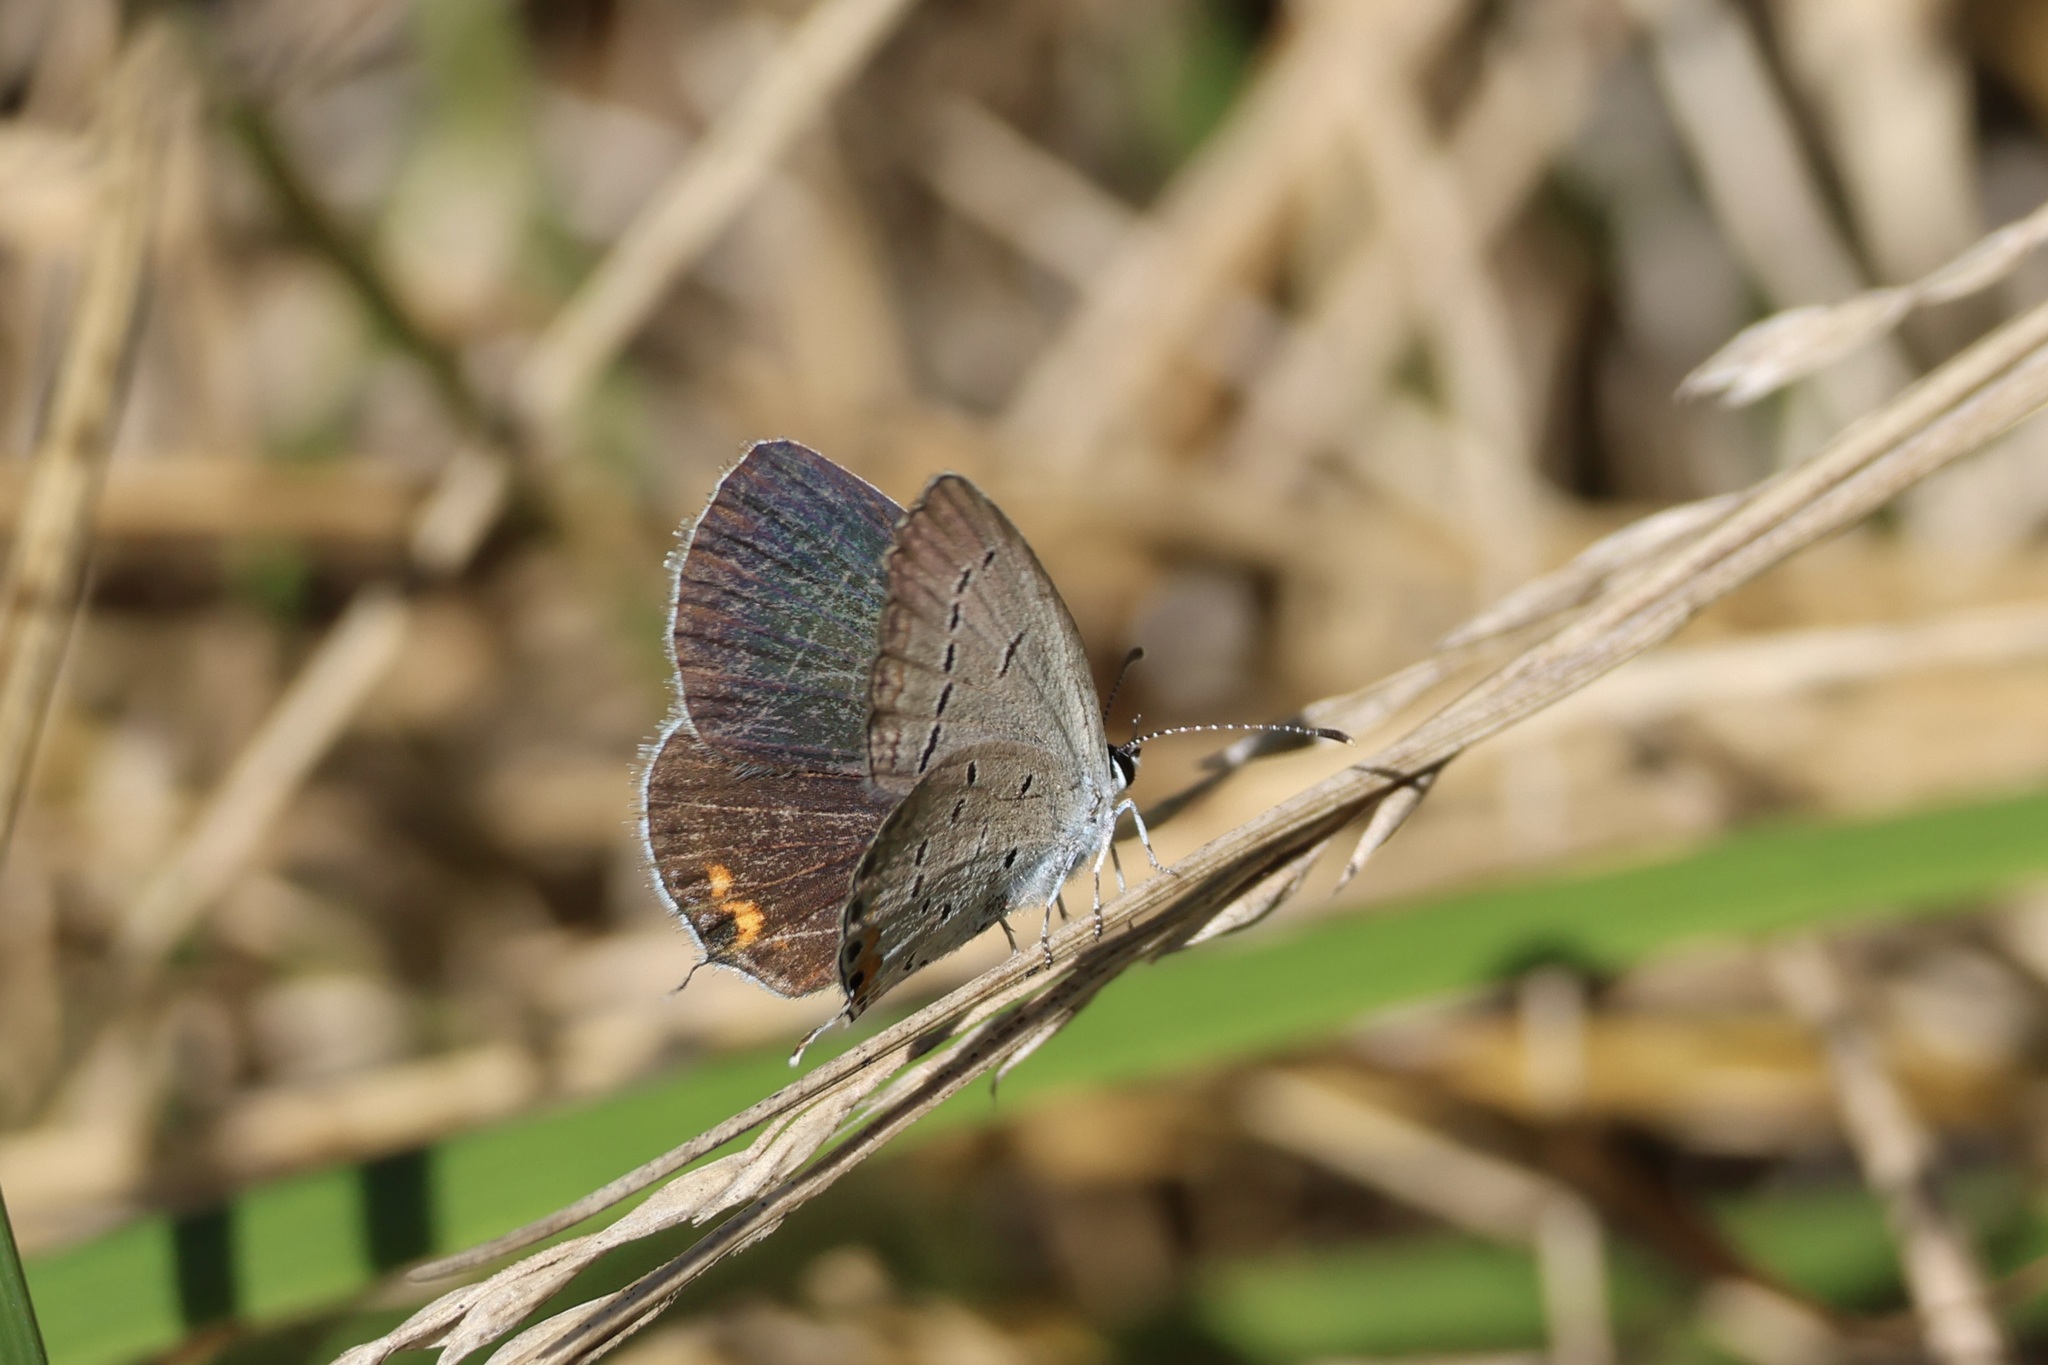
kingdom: Animalia
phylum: Arthropoda
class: Insecta
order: Lepidoptera
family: Lycaenidae
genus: Elkalyce
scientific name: Elkalyce comyntas
